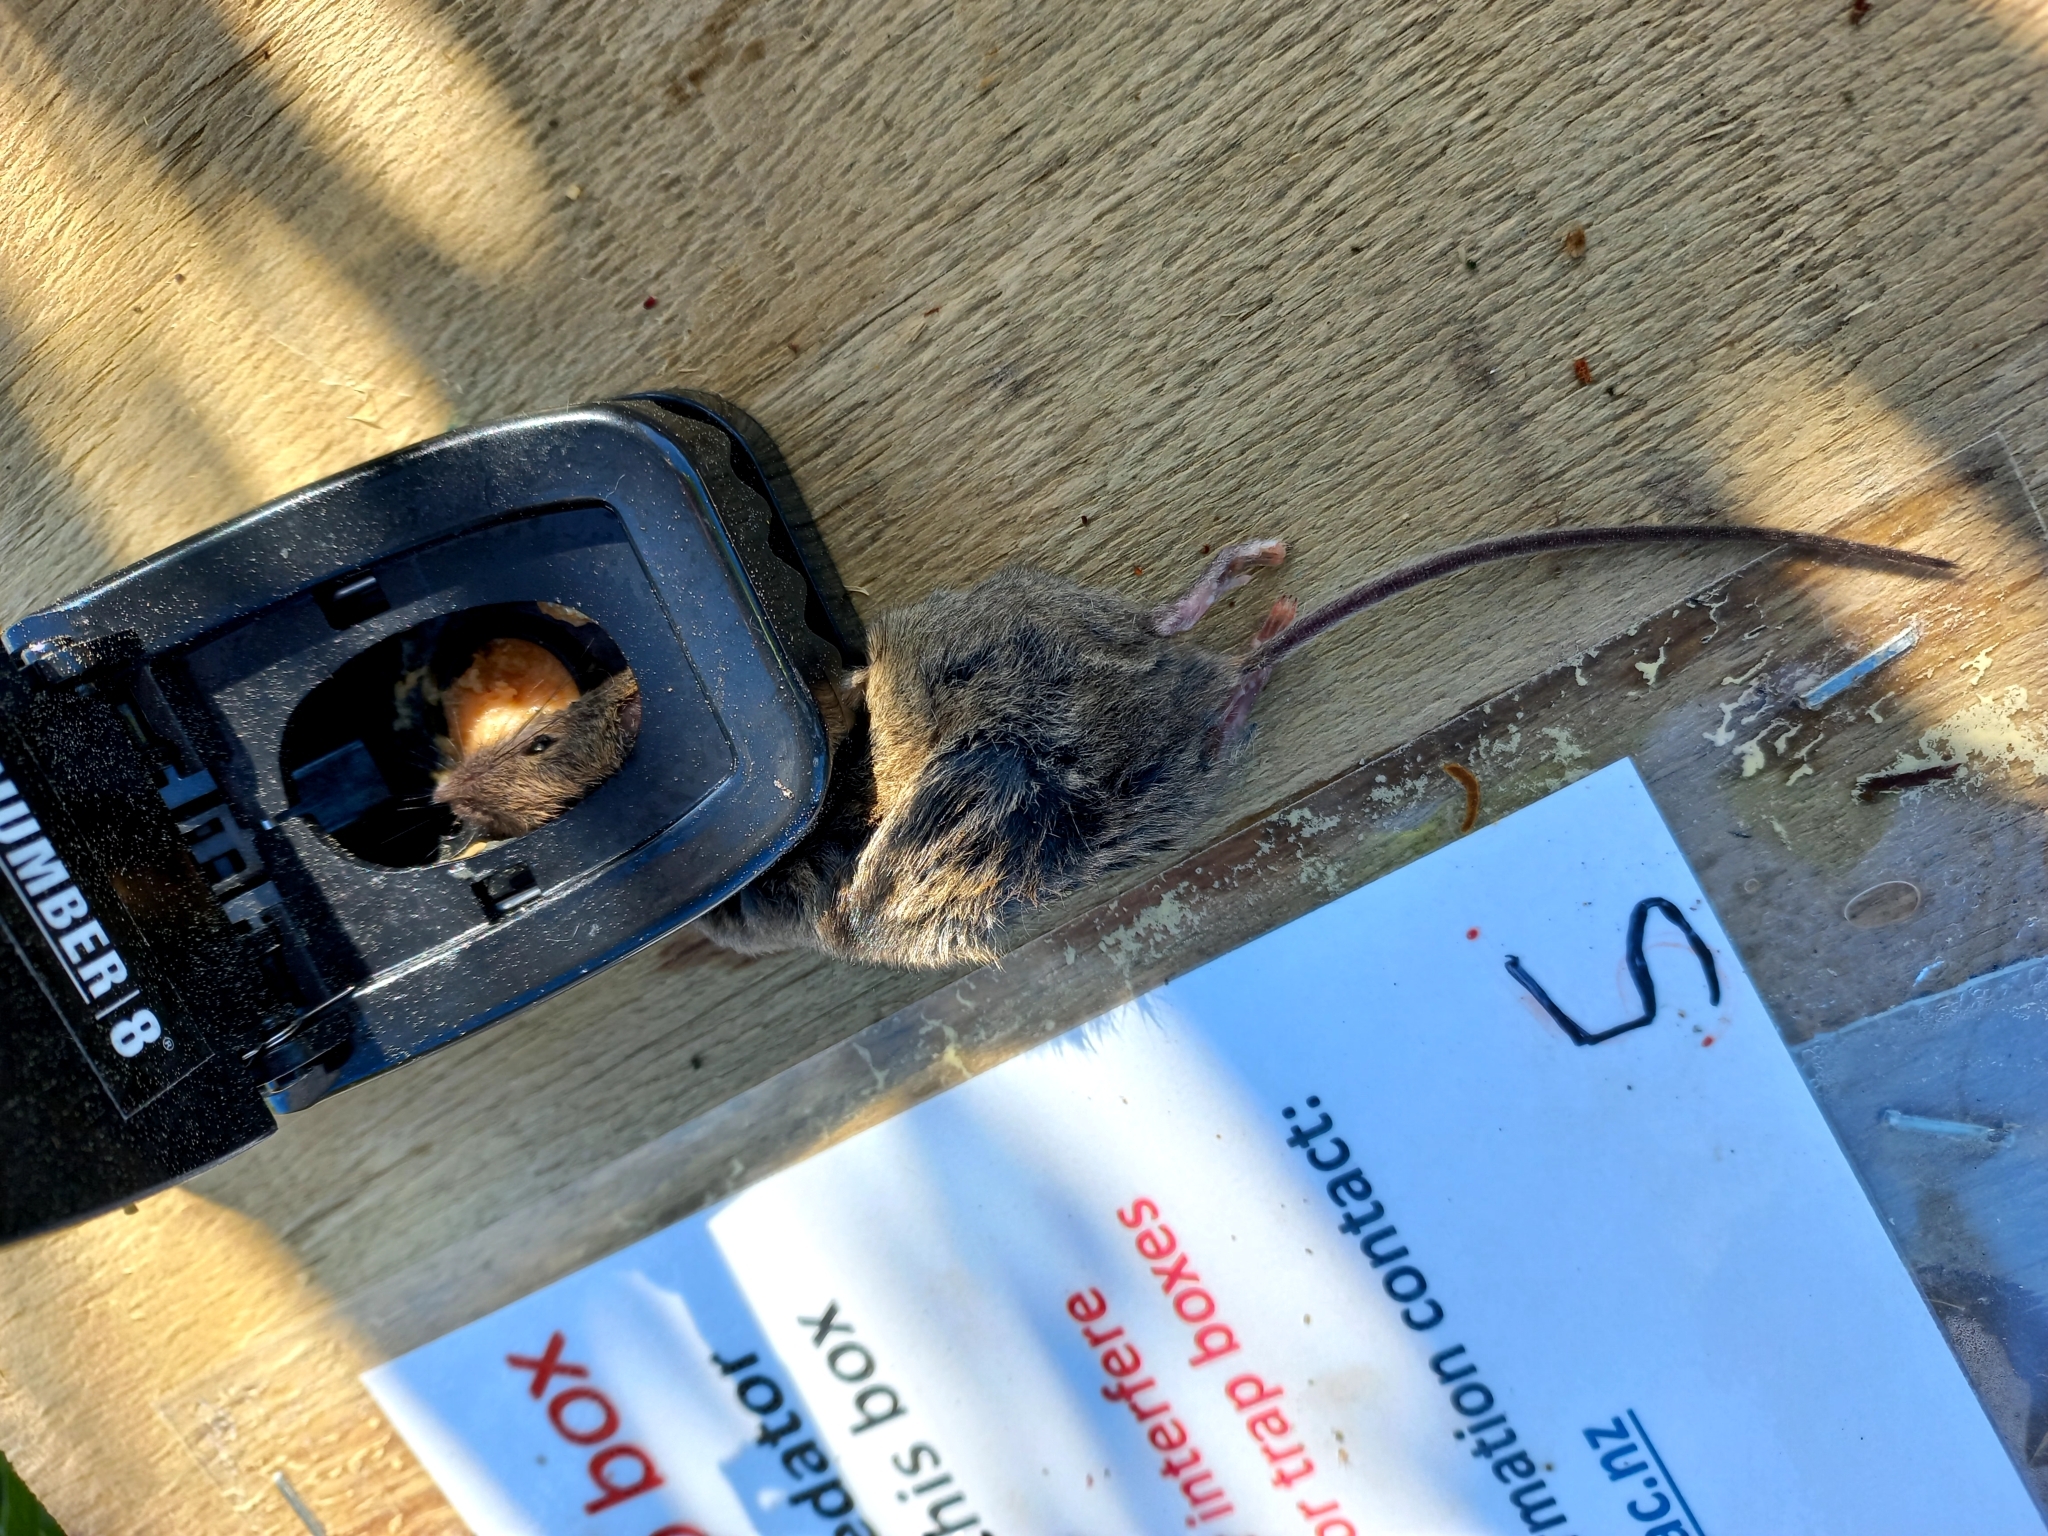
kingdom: Animalia
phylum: Chordata
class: Mammalia
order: Rodentia
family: Muridae
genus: Mus
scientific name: Mus musculus
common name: House mouse
